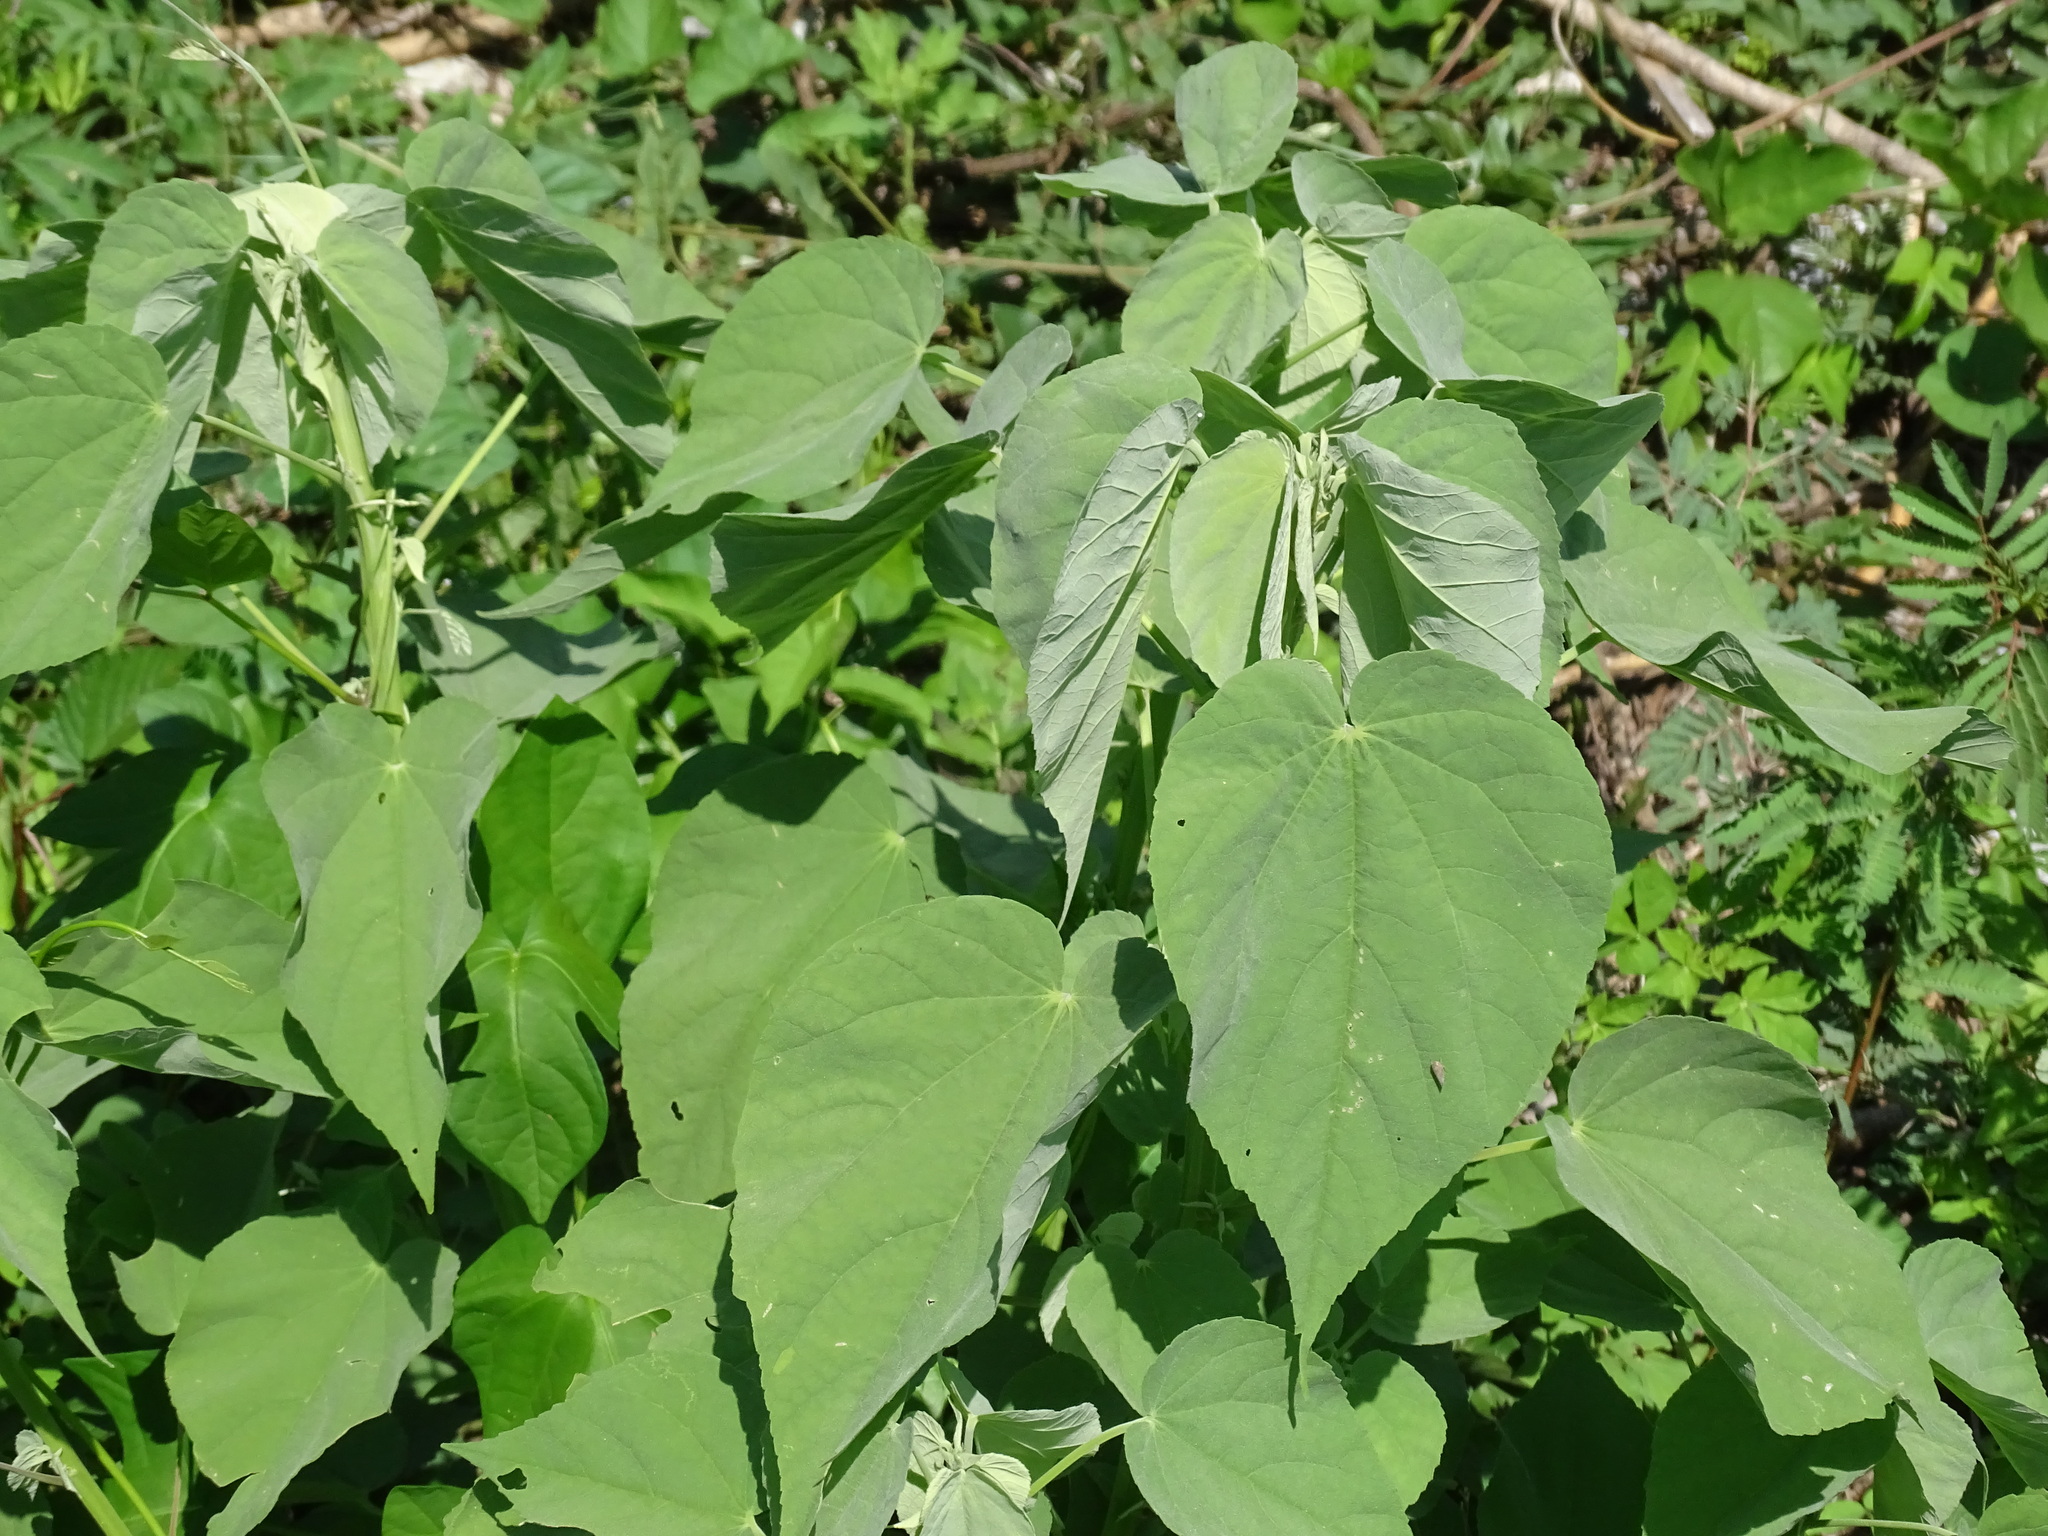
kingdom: Plantae
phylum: Tracheophyta
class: Magnoliopsida
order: Malvales
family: Malvaceae
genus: Abutilon
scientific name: Abutilon trisulcatum
